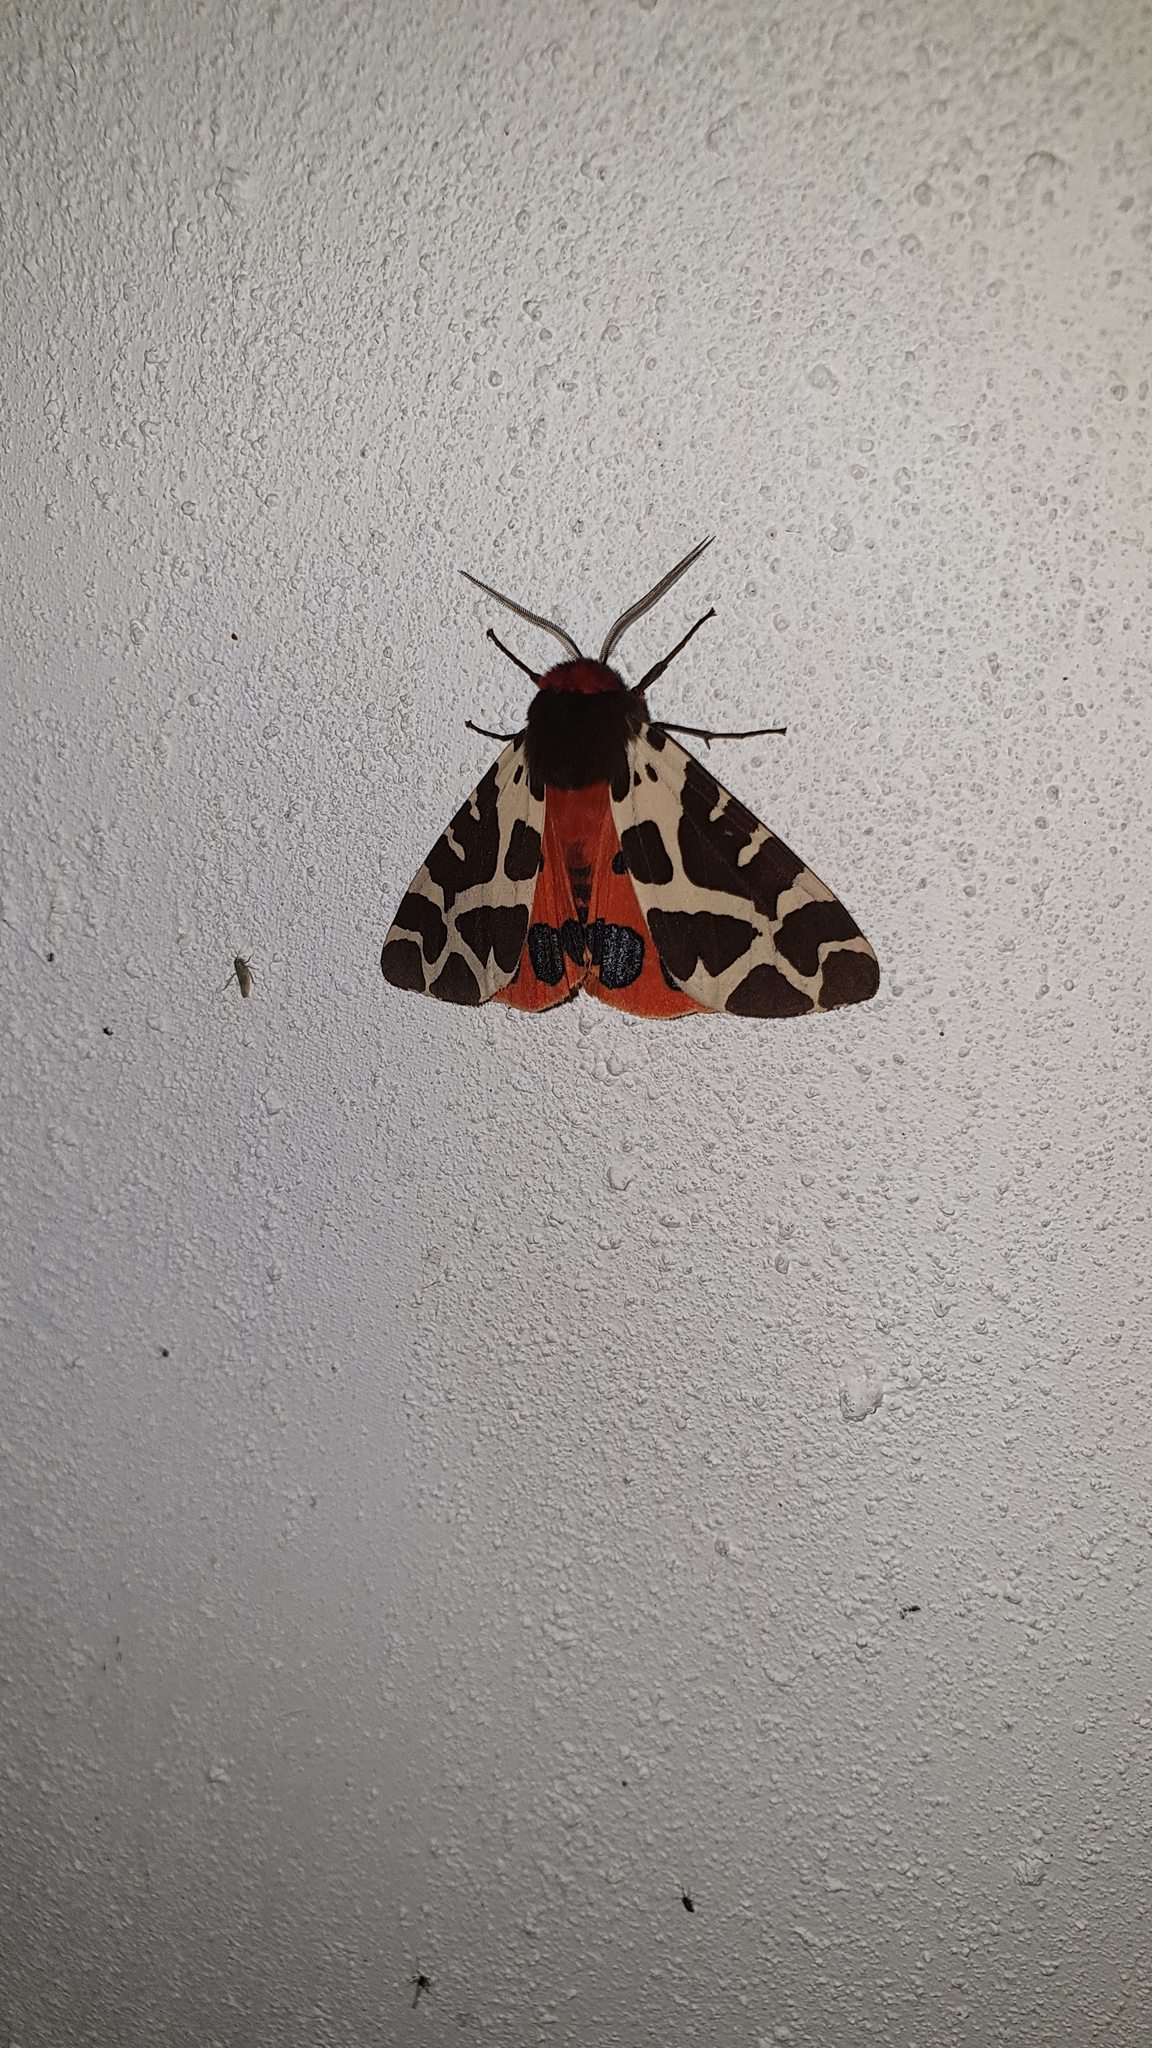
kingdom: Animalia
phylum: Arthropoda
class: Insecta
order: Lepidoptera
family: Erebidae
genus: Arctia
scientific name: Arctia caja
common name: Garden tiger
